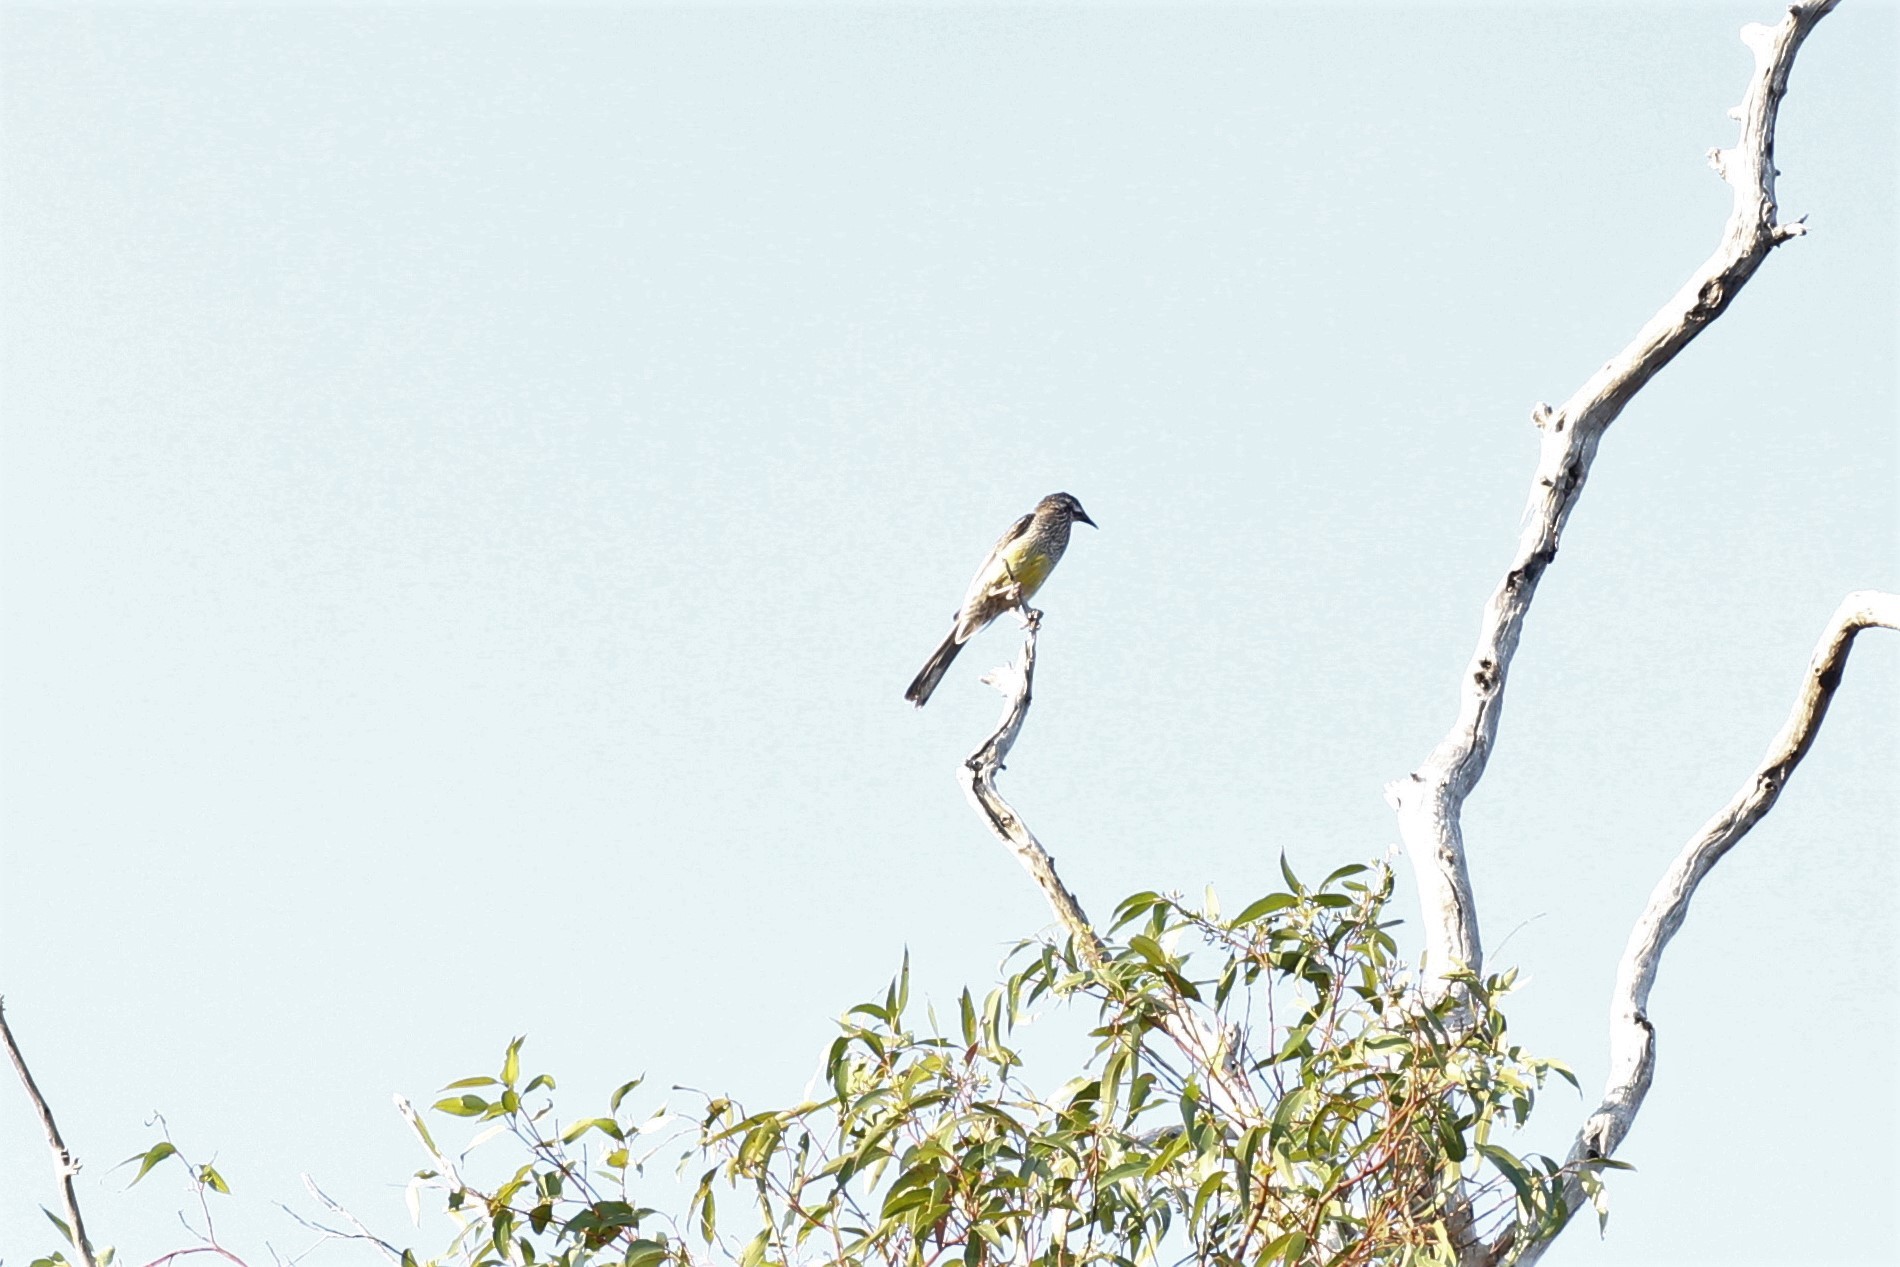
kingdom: Animalia
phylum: Chordata
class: Aves
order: Passeriformes
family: Meliphagidae
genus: Anthochaera
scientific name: Anthochaera carunculata
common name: Red wattlebird
